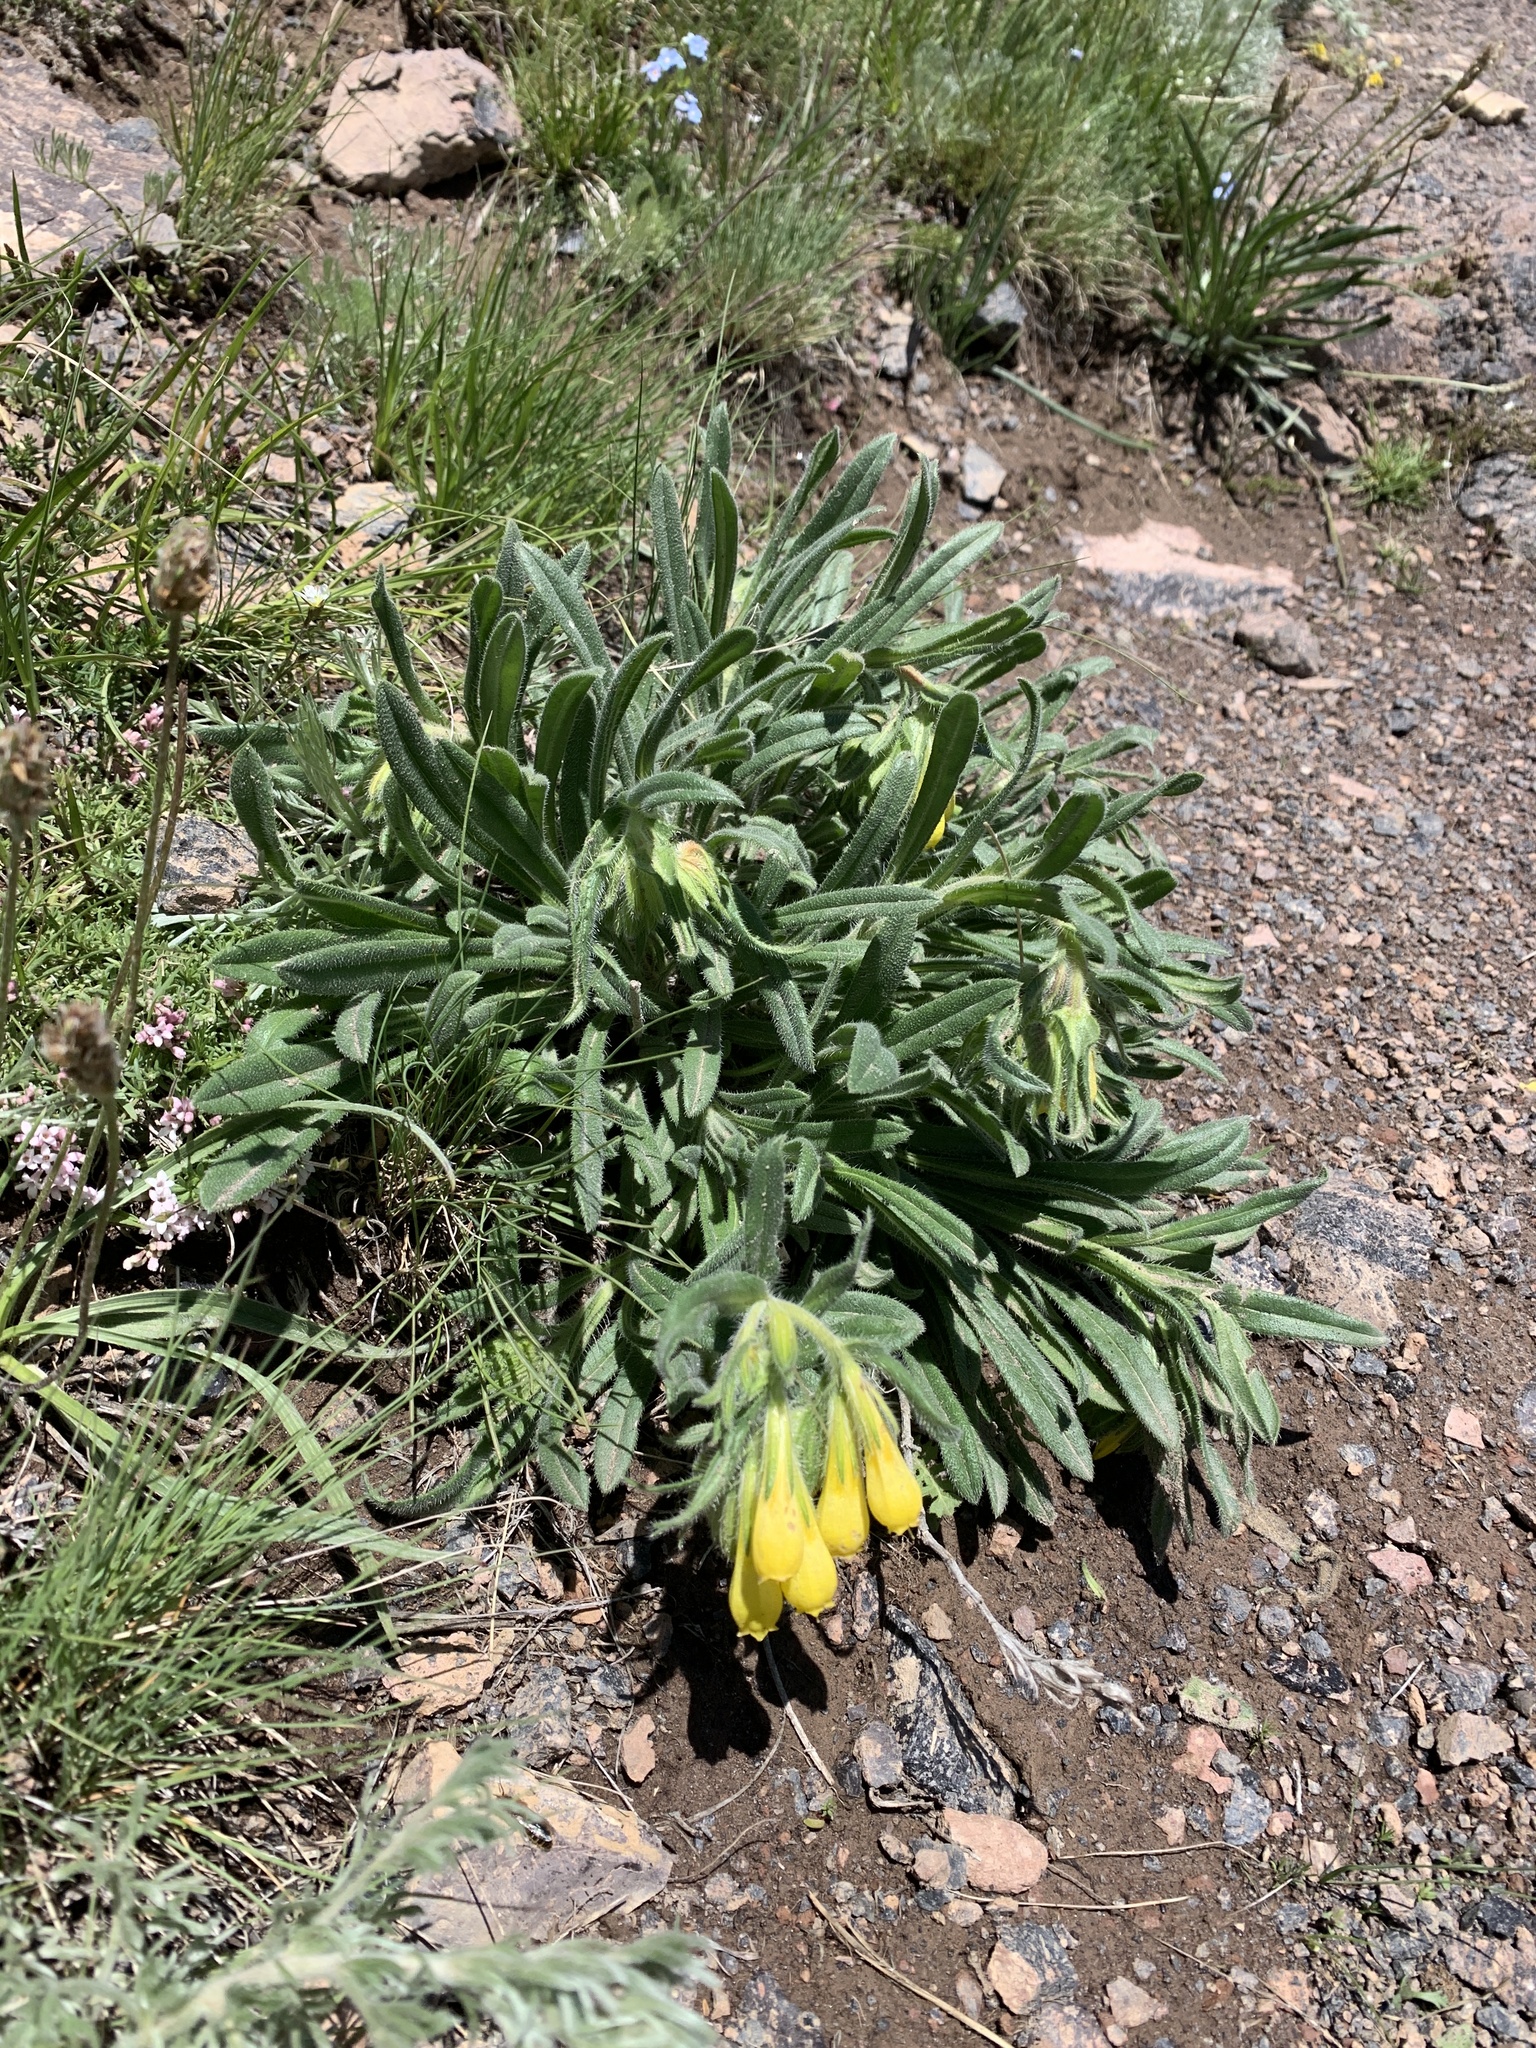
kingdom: Plantae
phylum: Tracheophyta
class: Magnoliopsida
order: Boraginales
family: Boraginaceae
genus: Onosma
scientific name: Onosma caucasica
